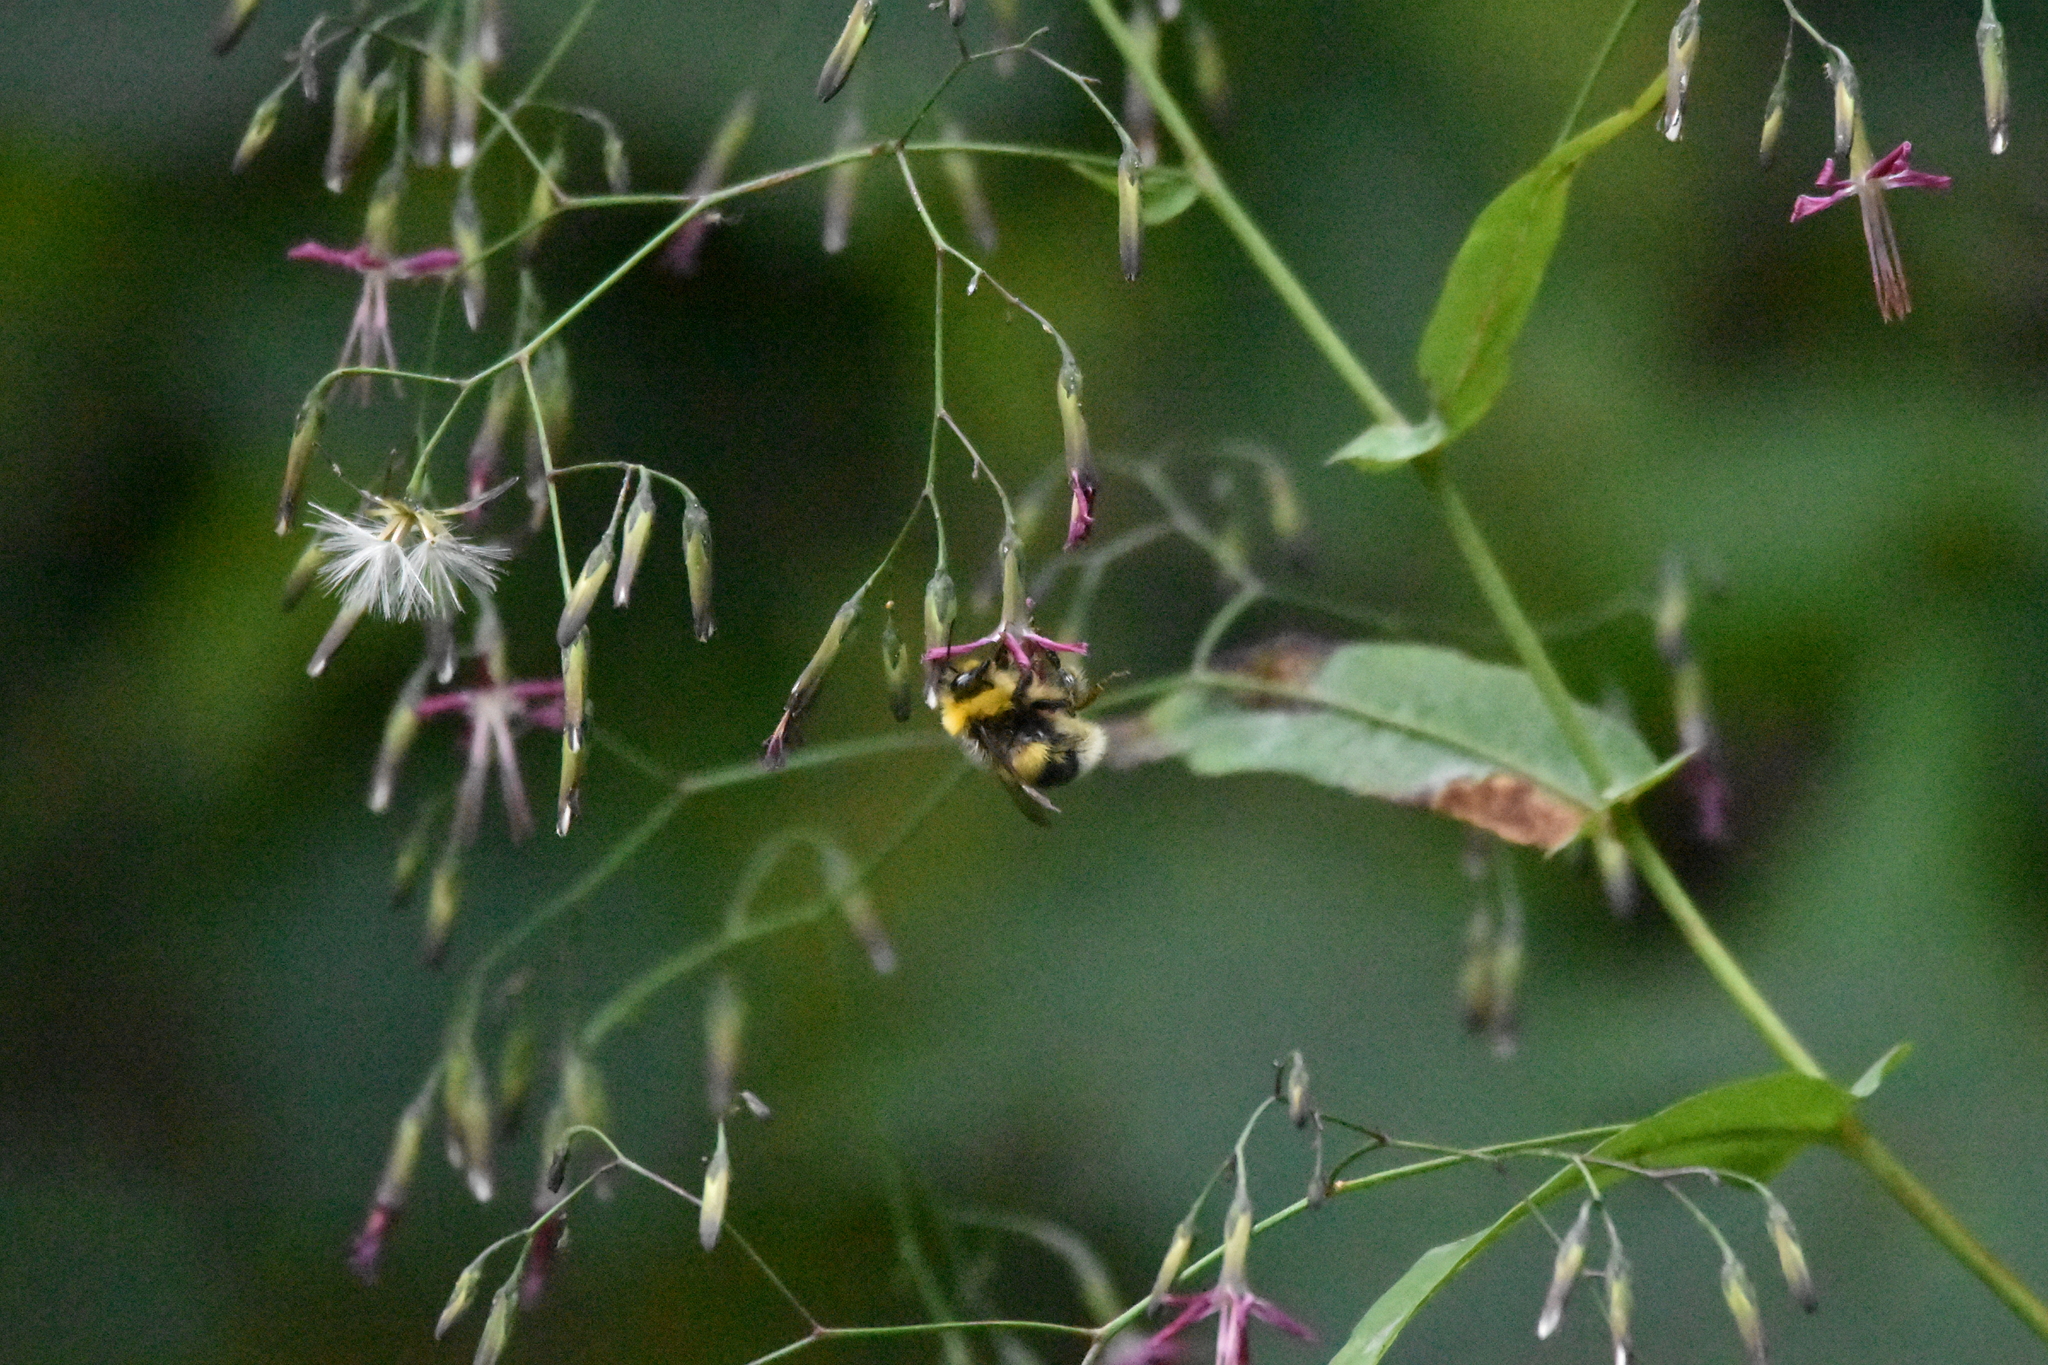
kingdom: Animalia
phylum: Arthropoda
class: Insecta
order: Hymenoptera
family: Apidae
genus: Bombus
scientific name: Bombus lucorum
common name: White-tailed bumblebee
